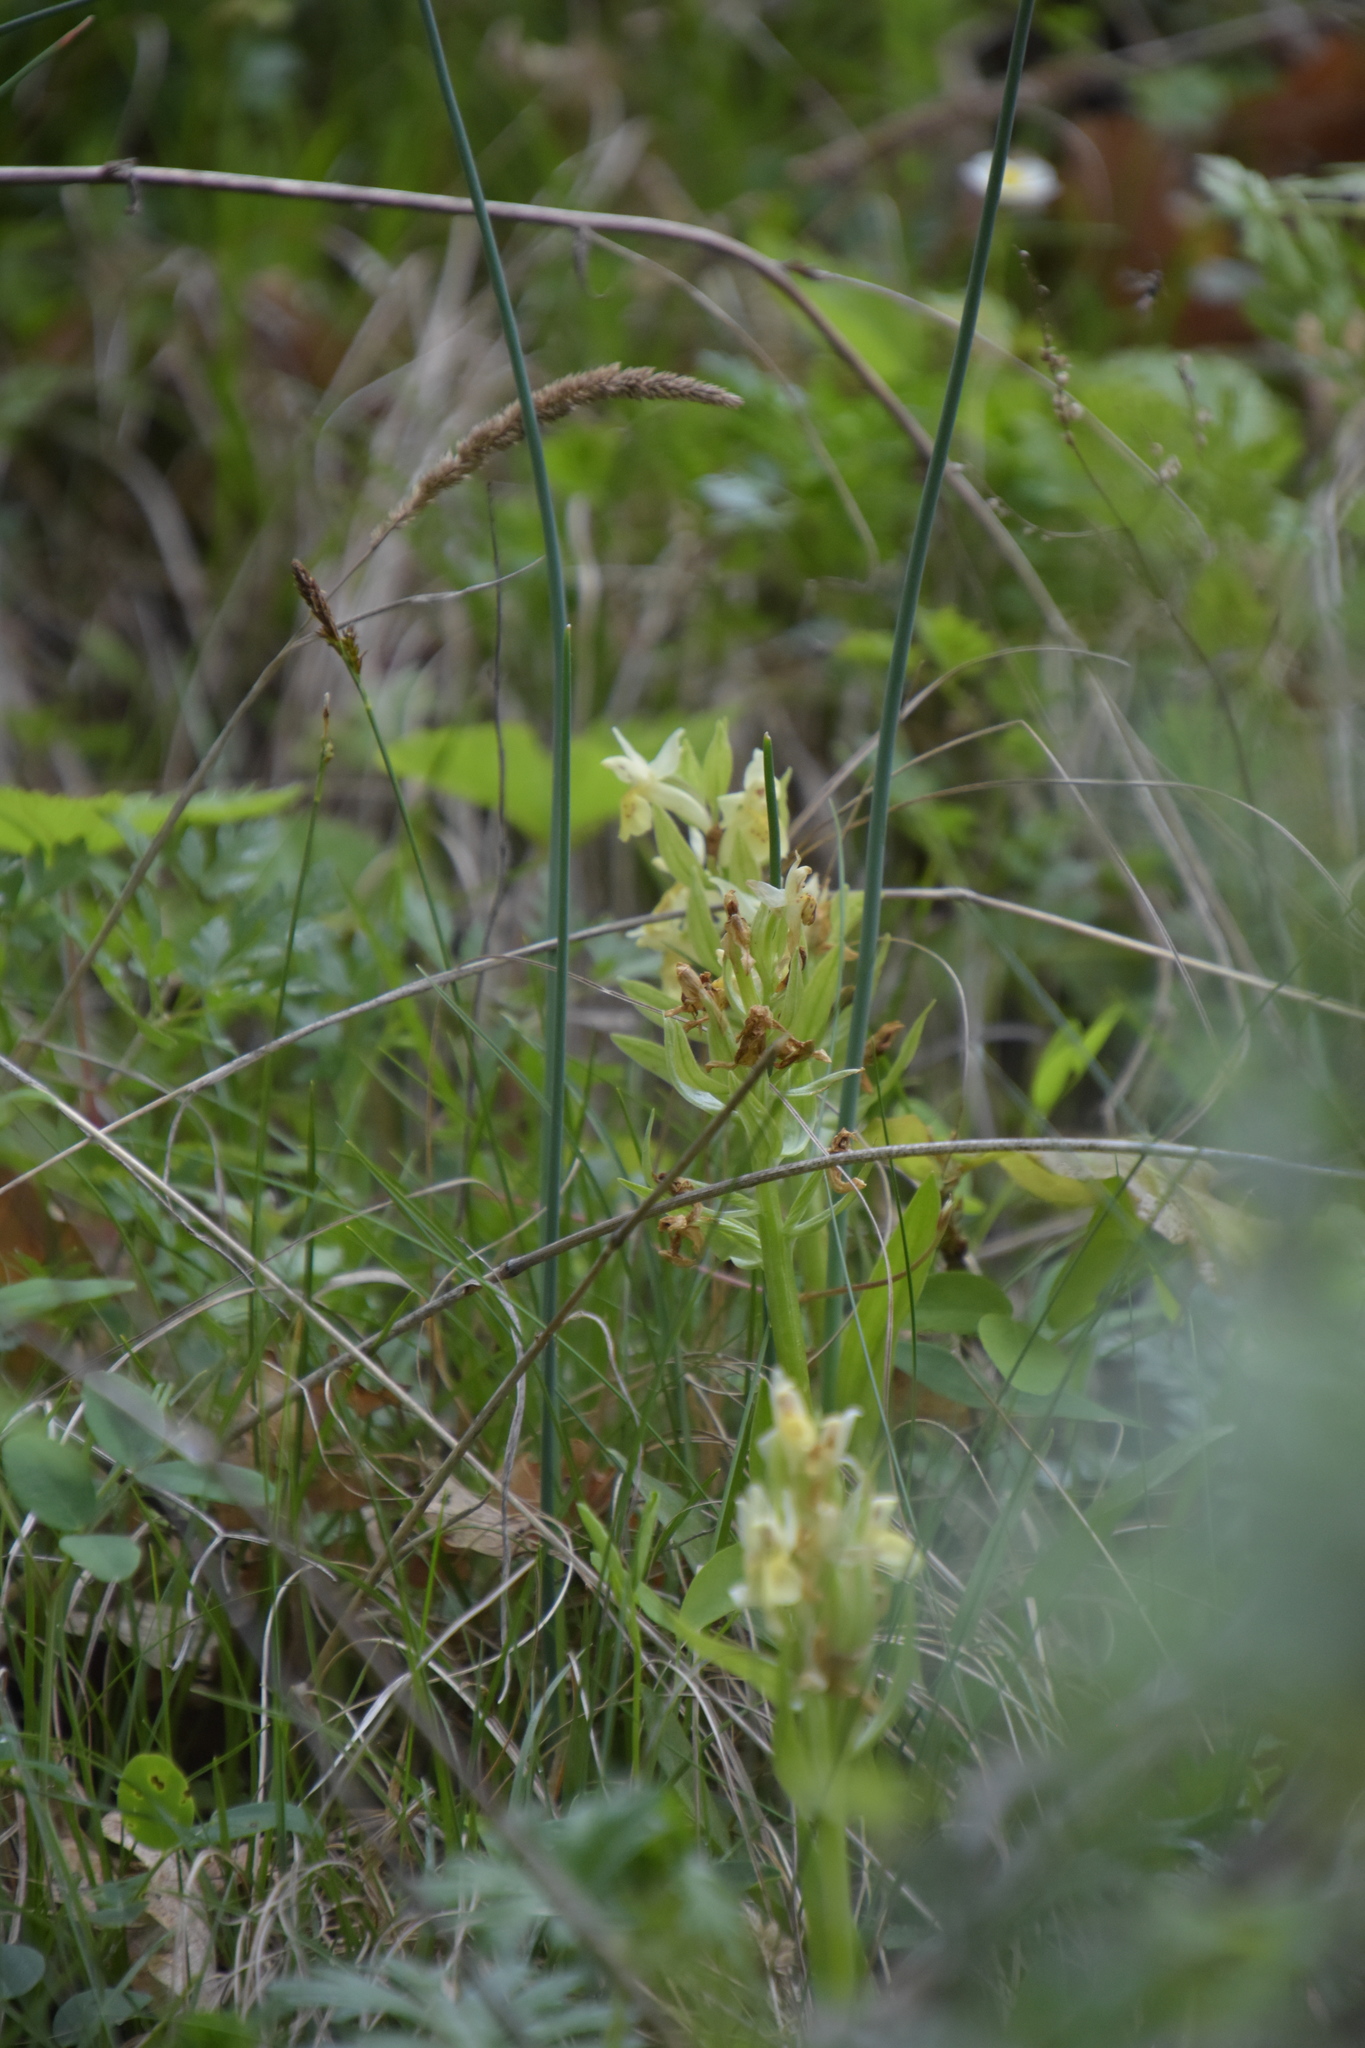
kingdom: Plantae
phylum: Tracheophyta
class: Liliopsida
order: Asparagales
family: Orchidaceae
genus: Dactylorhiza
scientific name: Dactylorhiza sambucina
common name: Elder-flowered orchid
